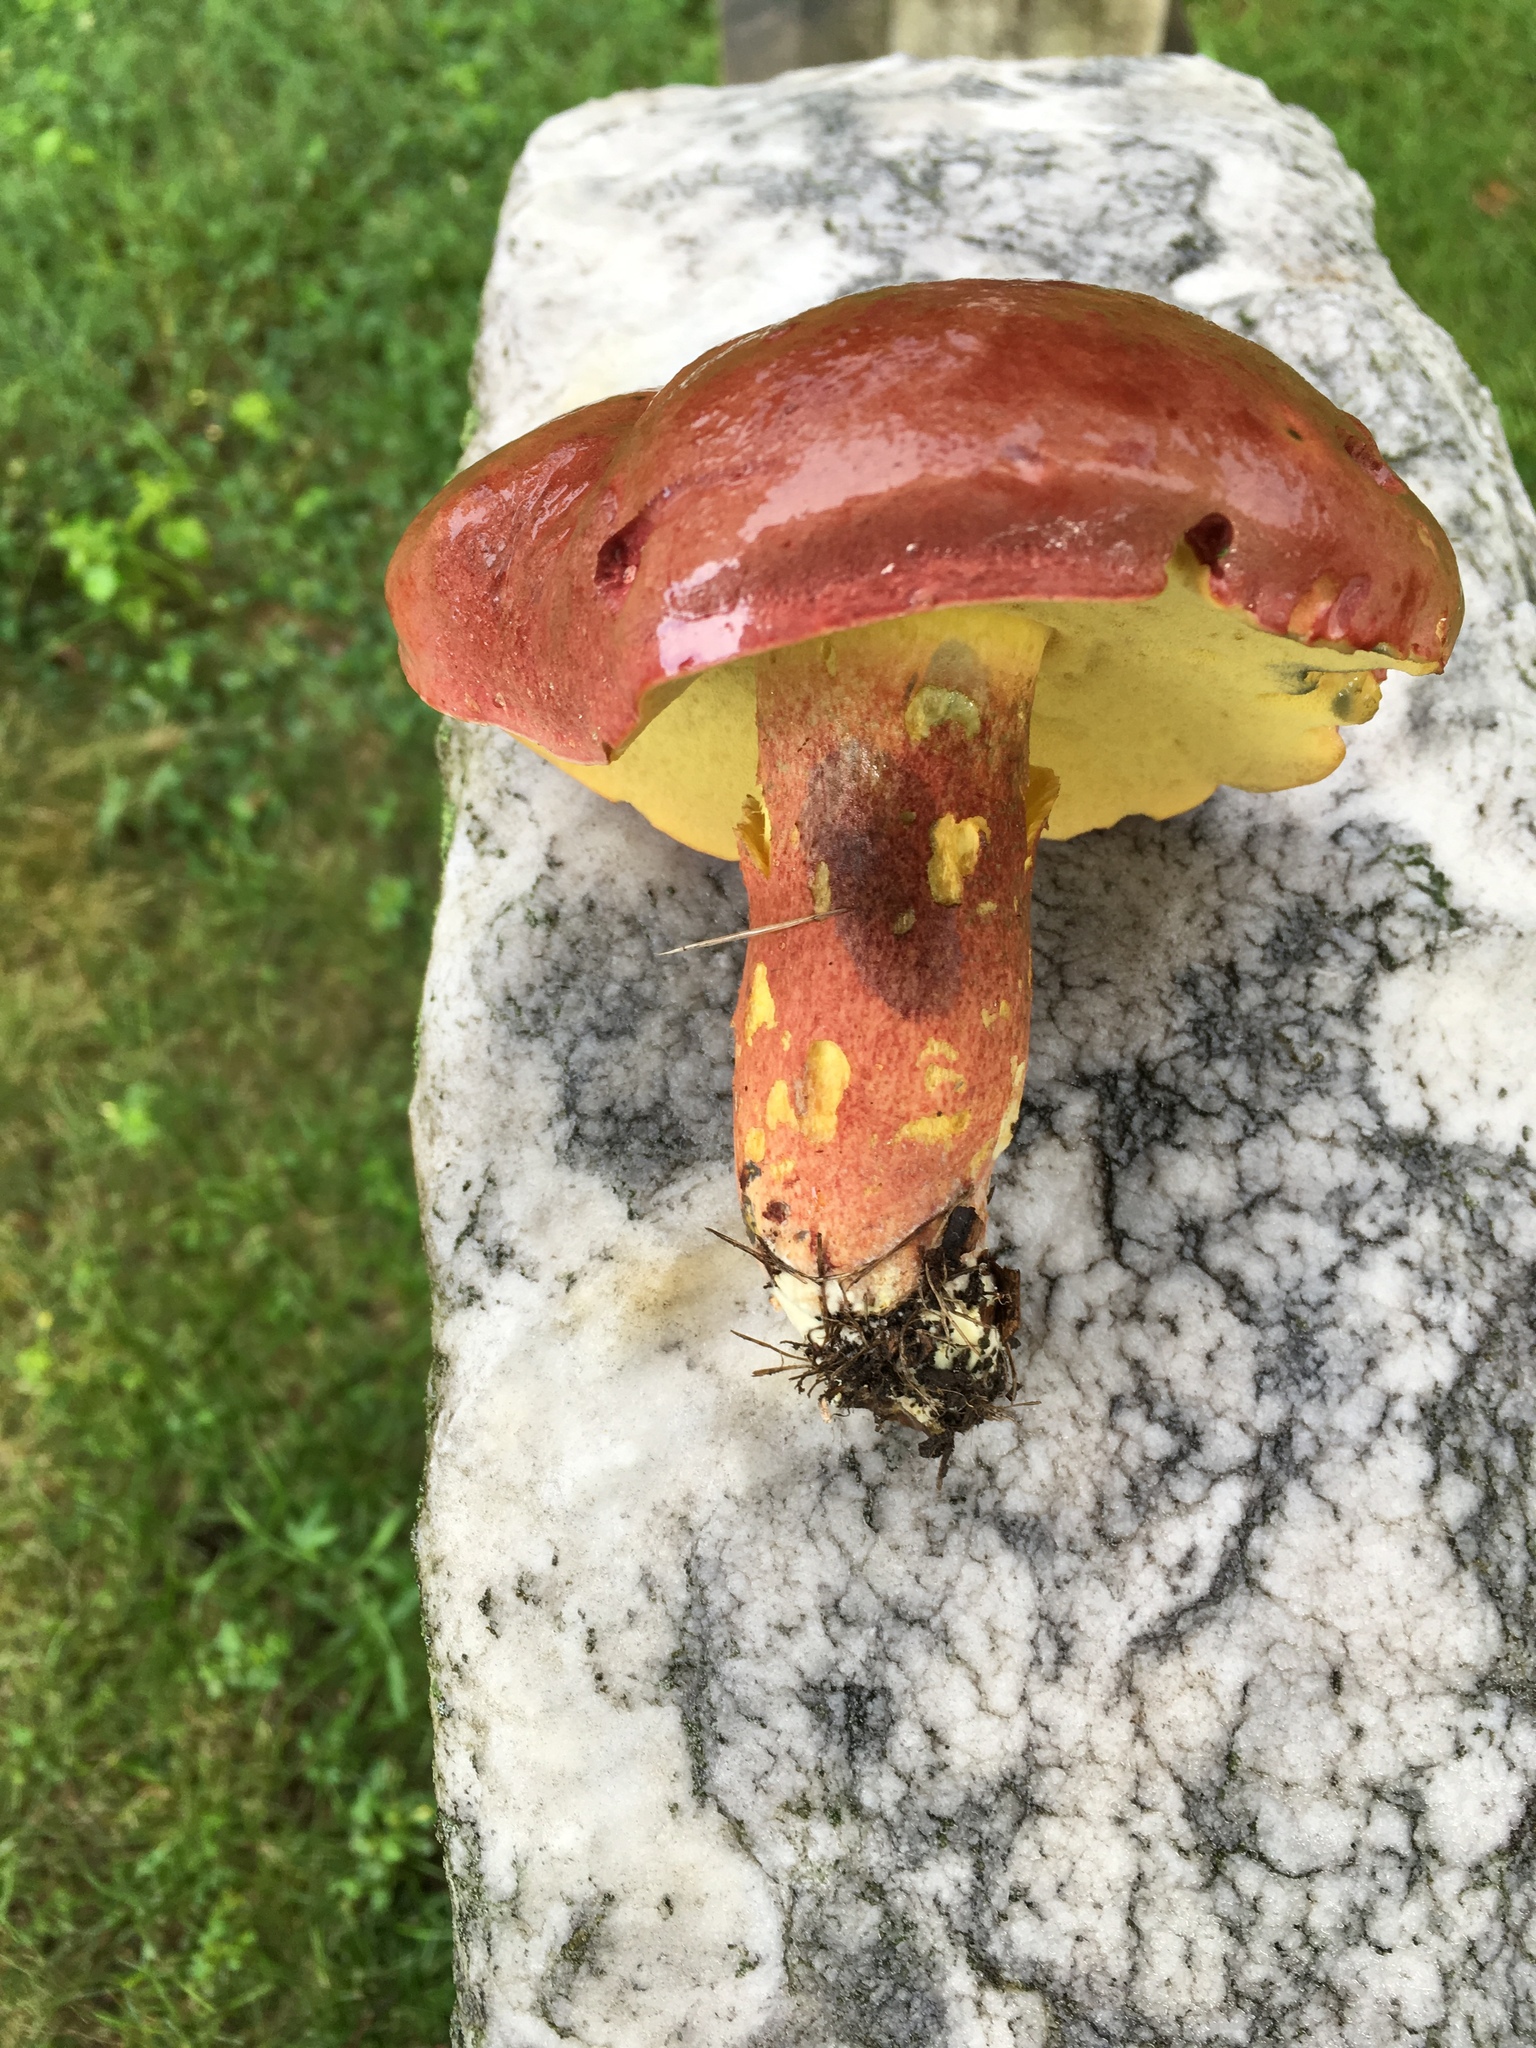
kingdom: Fungi
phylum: Basidiomycota
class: Agaricomycetes
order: Boletales
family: Boletaceae
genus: Lanmaoa
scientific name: Lanmaoa pseudosensibilis
